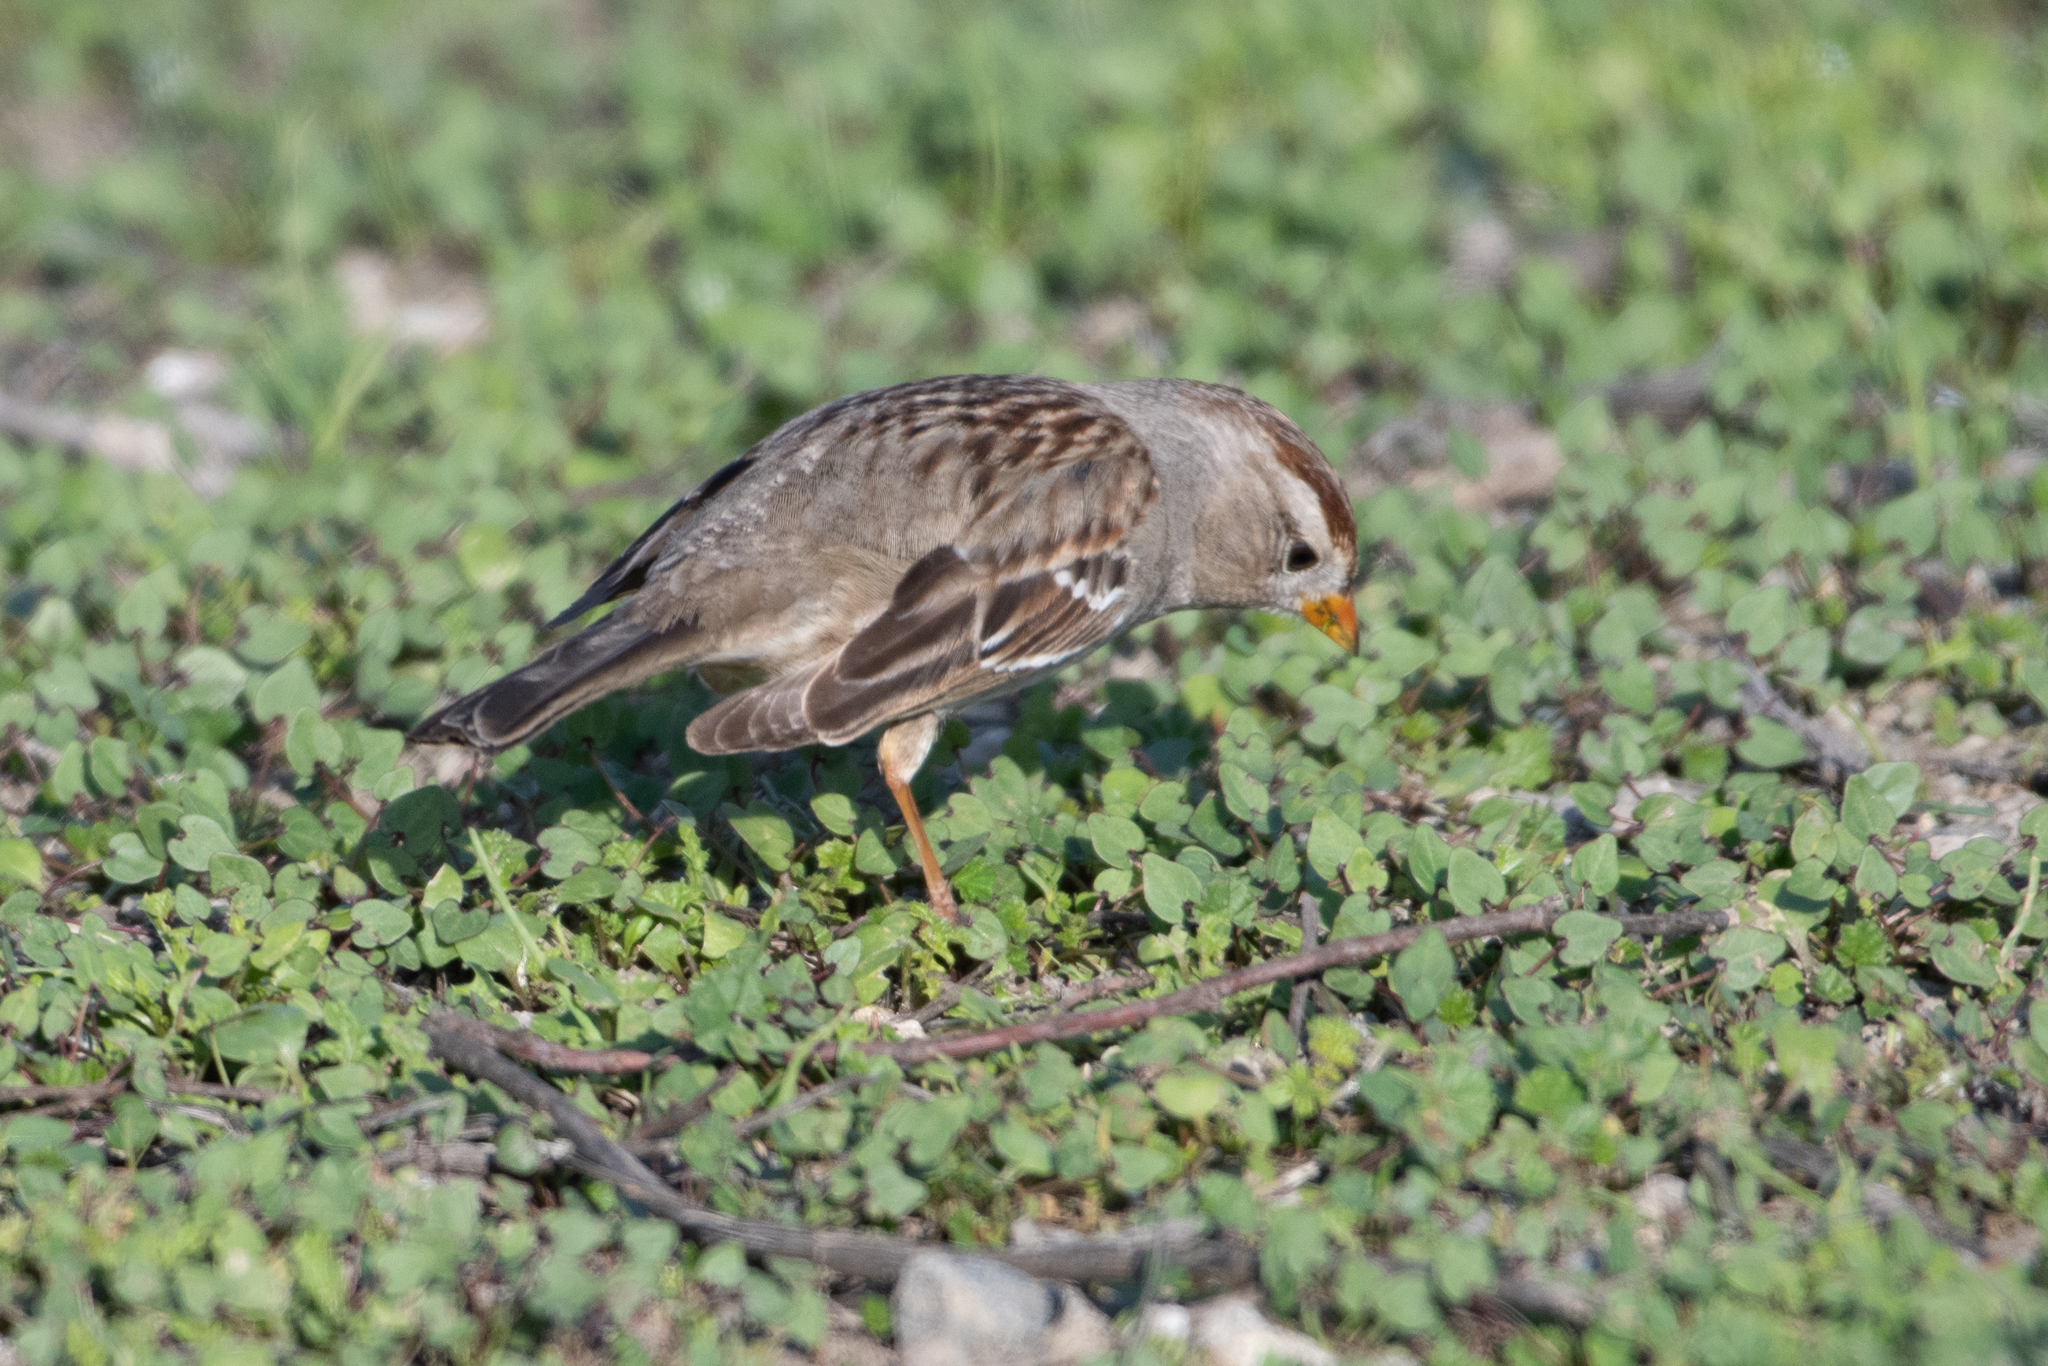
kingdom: Animalia
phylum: Chordata
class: Aves
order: Passeriformes
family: Passerellidae
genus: Zonotrichia
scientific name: Zonotrichia leucophrys
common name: White-crowned sparrow
